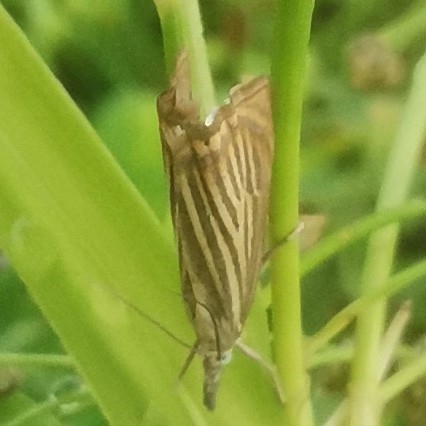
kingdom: Animalia
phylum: Arthropoda
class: Insecta
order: Lepidoptera
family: Crambidae
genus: Chrysoteuchia
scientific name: Chrysoteuchia culmella
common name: Garden grass-veneer
